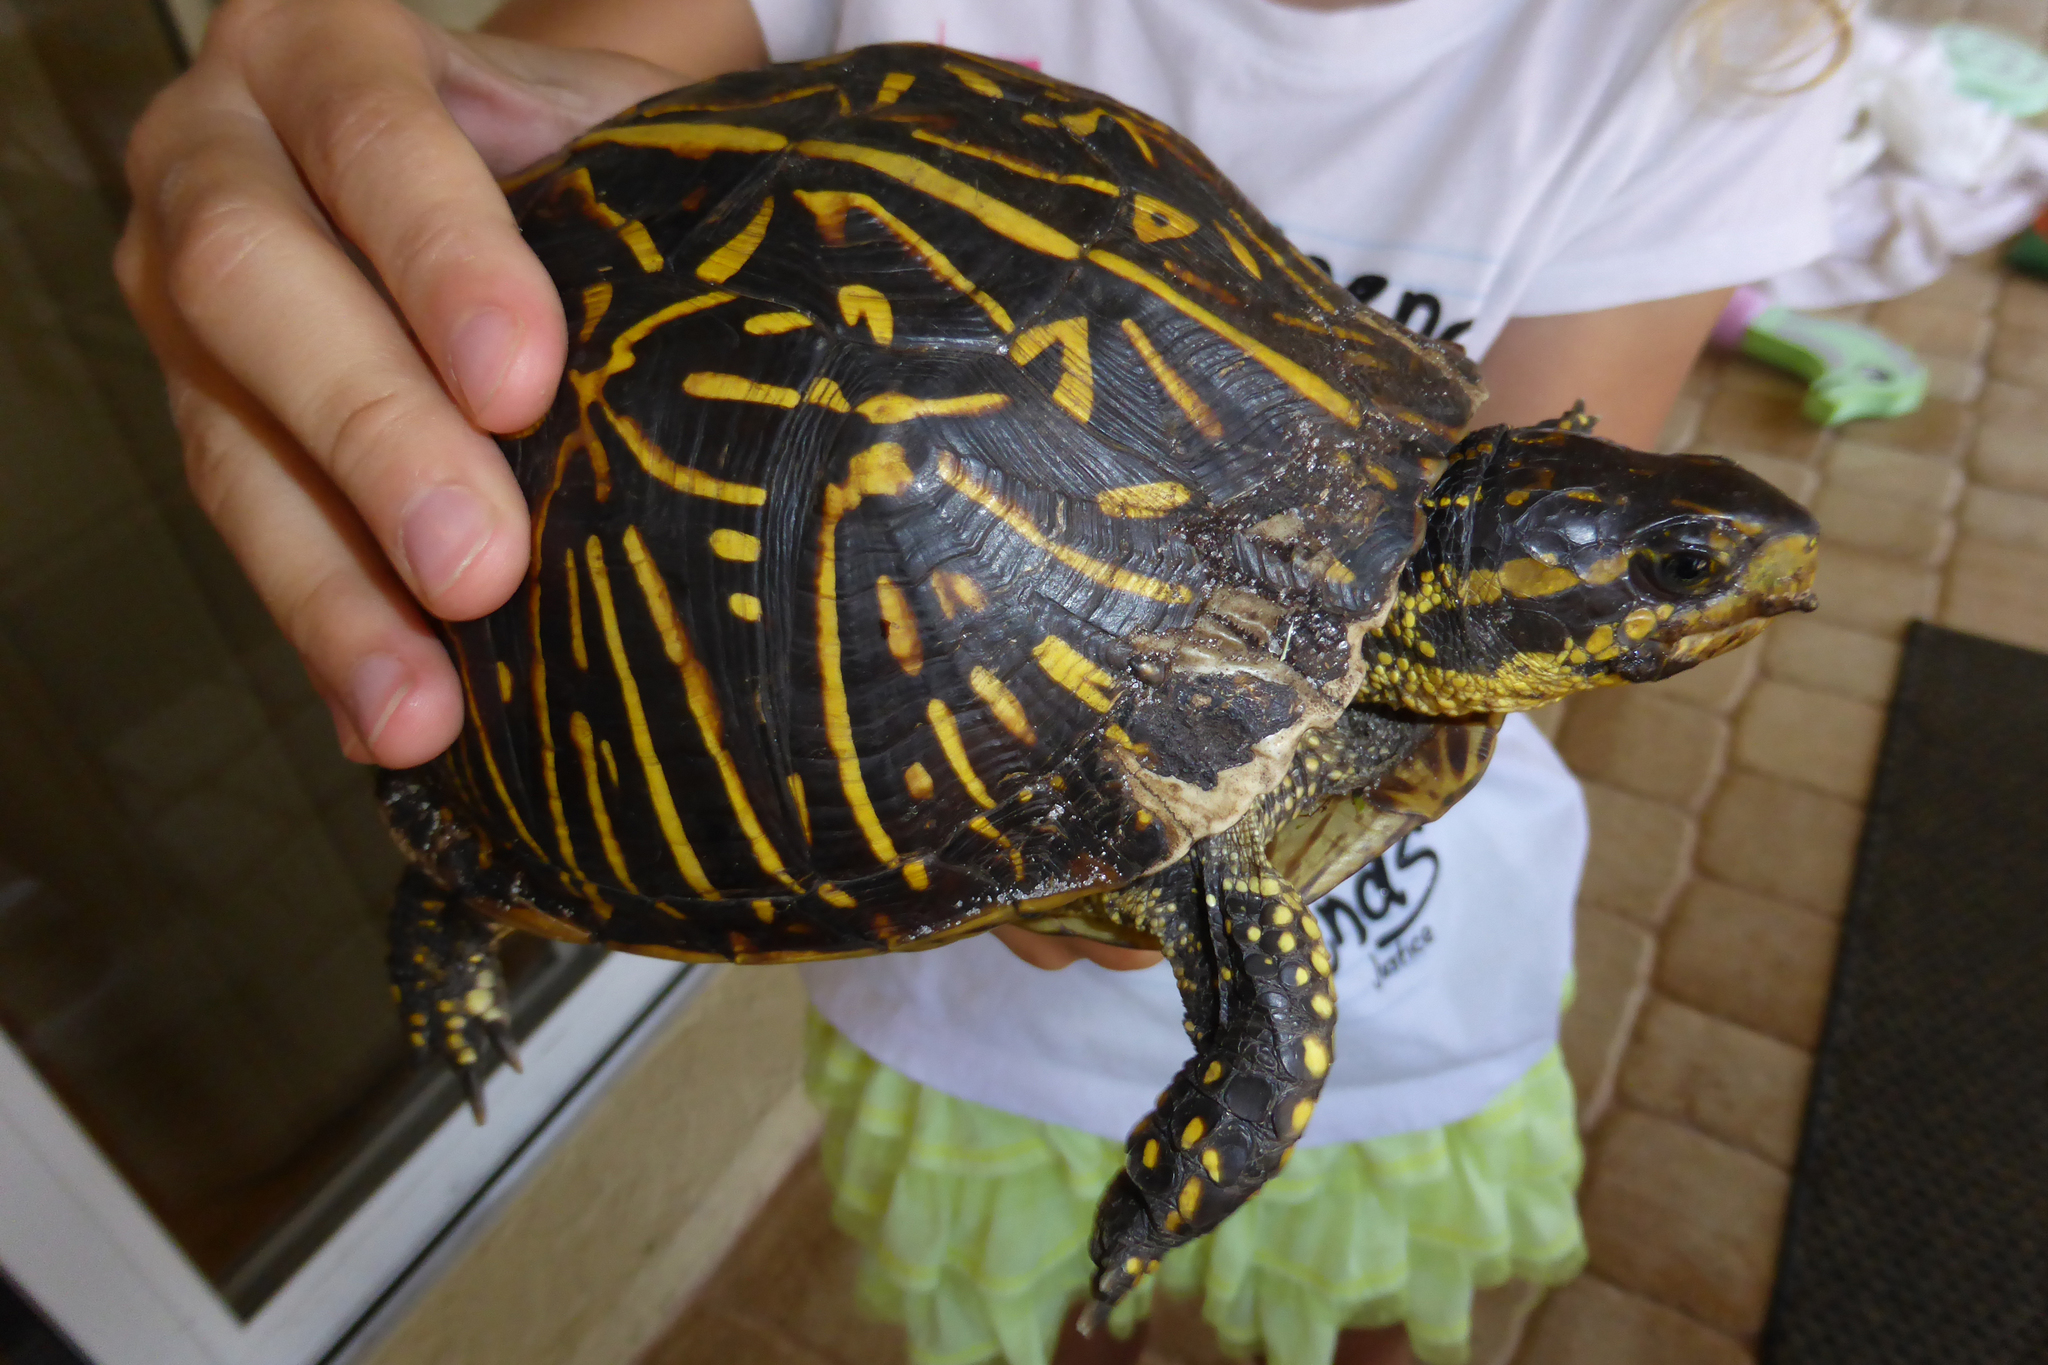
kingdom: Animalia
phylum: Chordata
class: Testudines
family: Emydidae
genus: Terrapene
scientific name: Terrapene carolina
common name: Common box turtle
